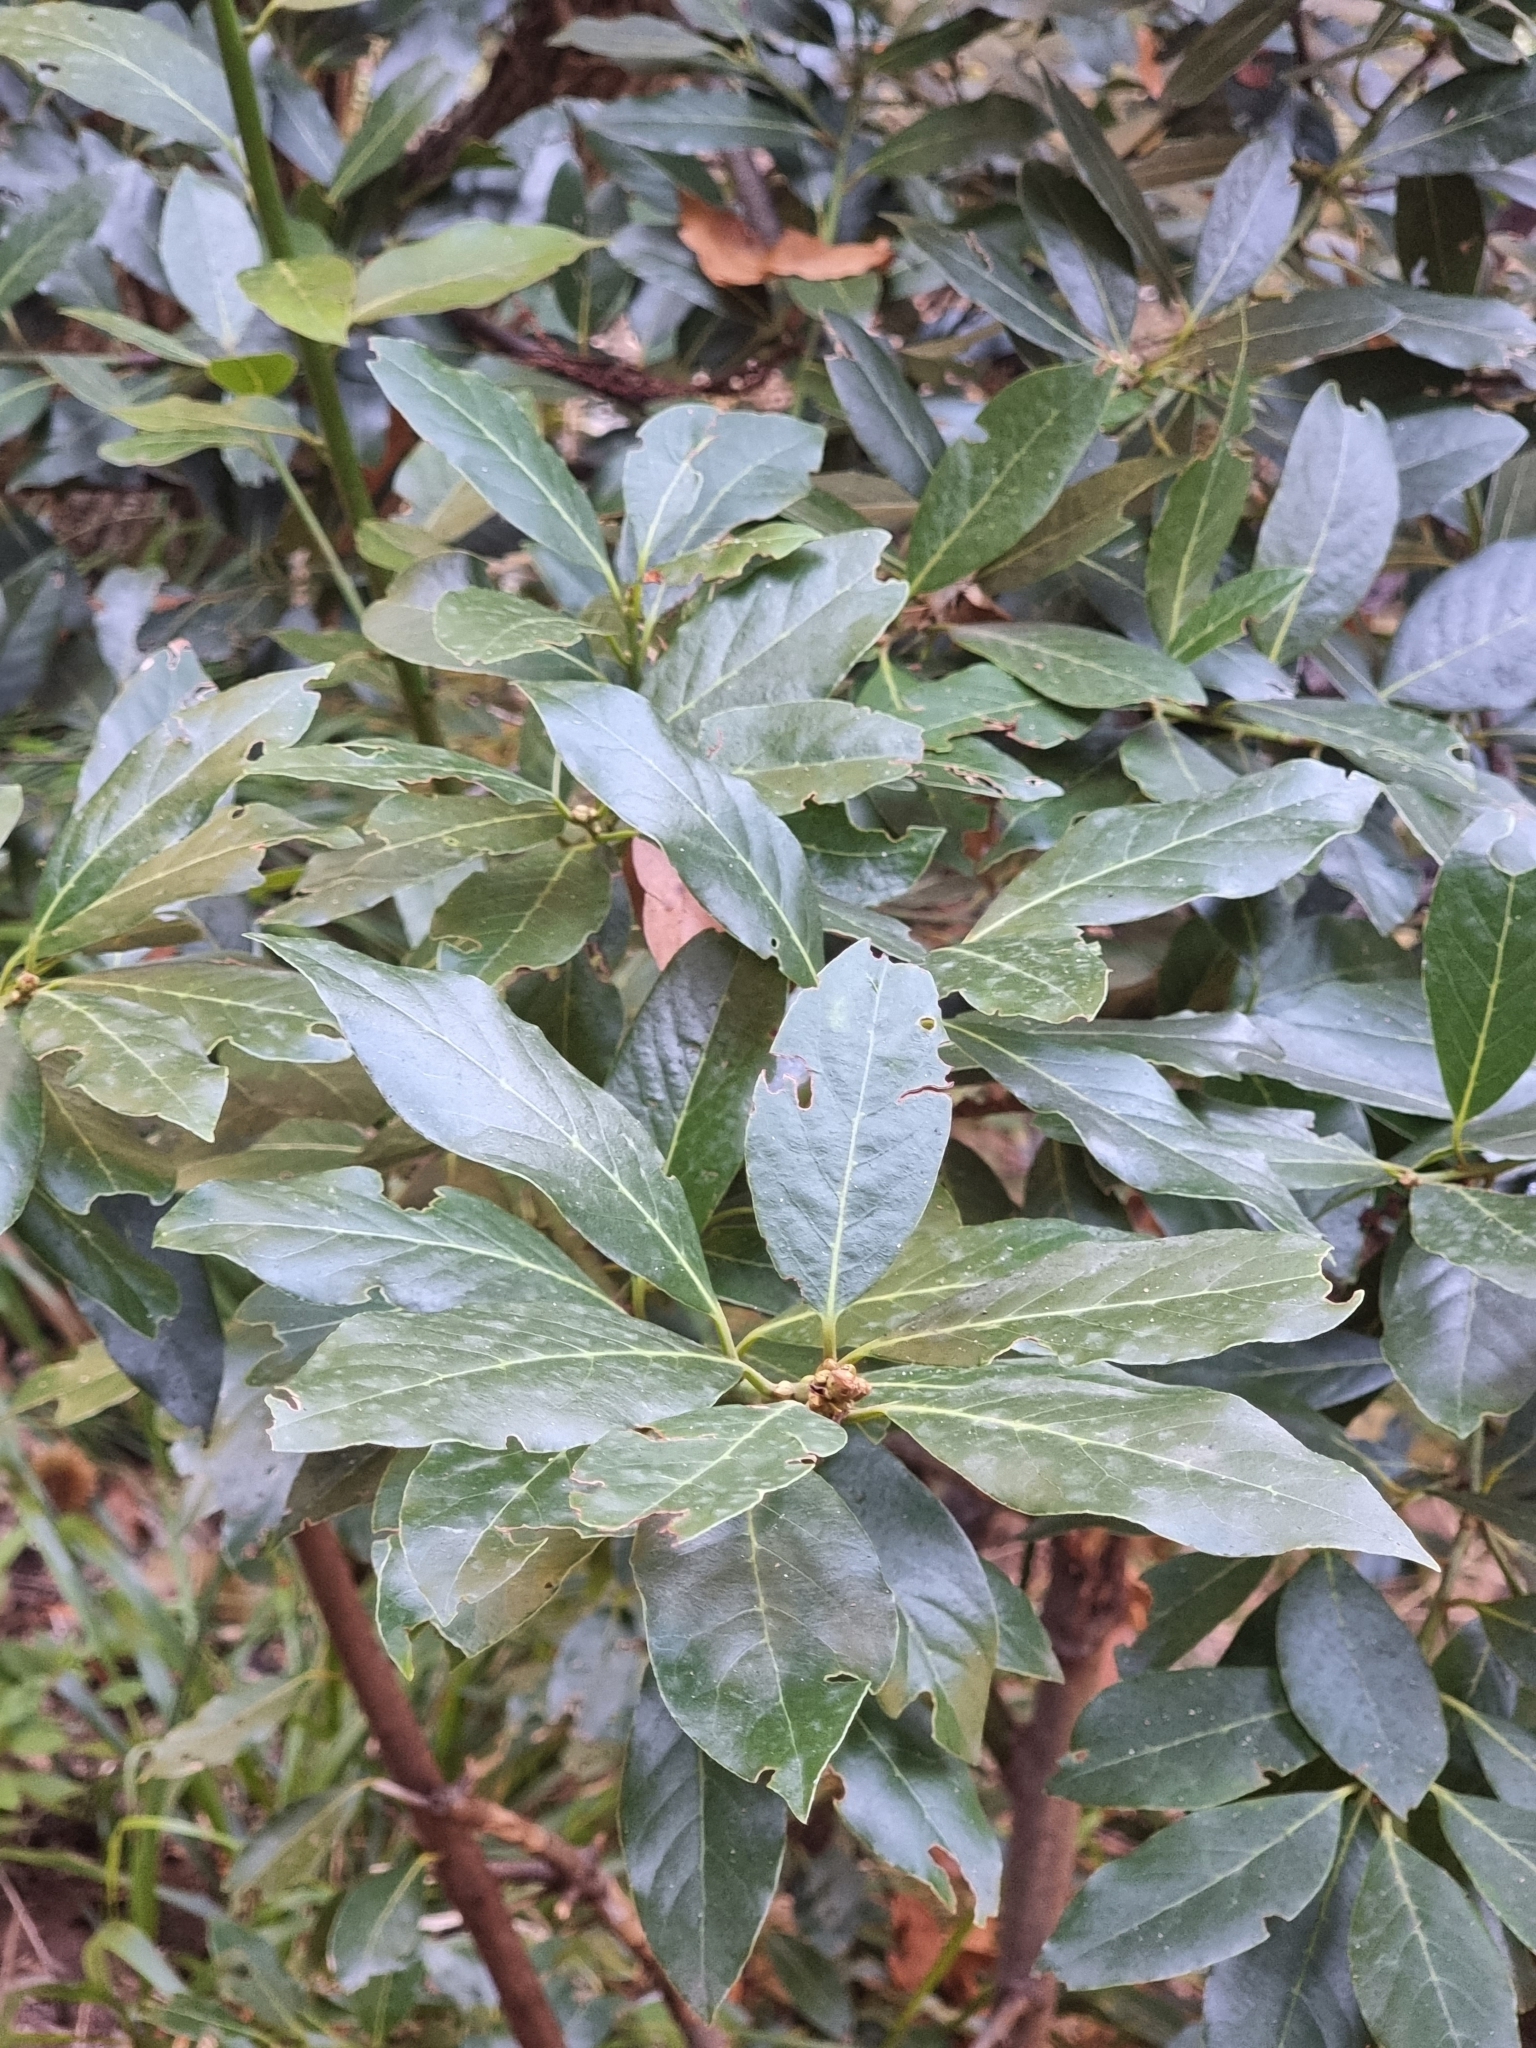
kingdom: Plantae
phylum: Tracheophyta
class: Magnoliopsida
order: Laurales
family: Lauraceae
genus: Laurus
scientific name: Laurus novocanariensis
